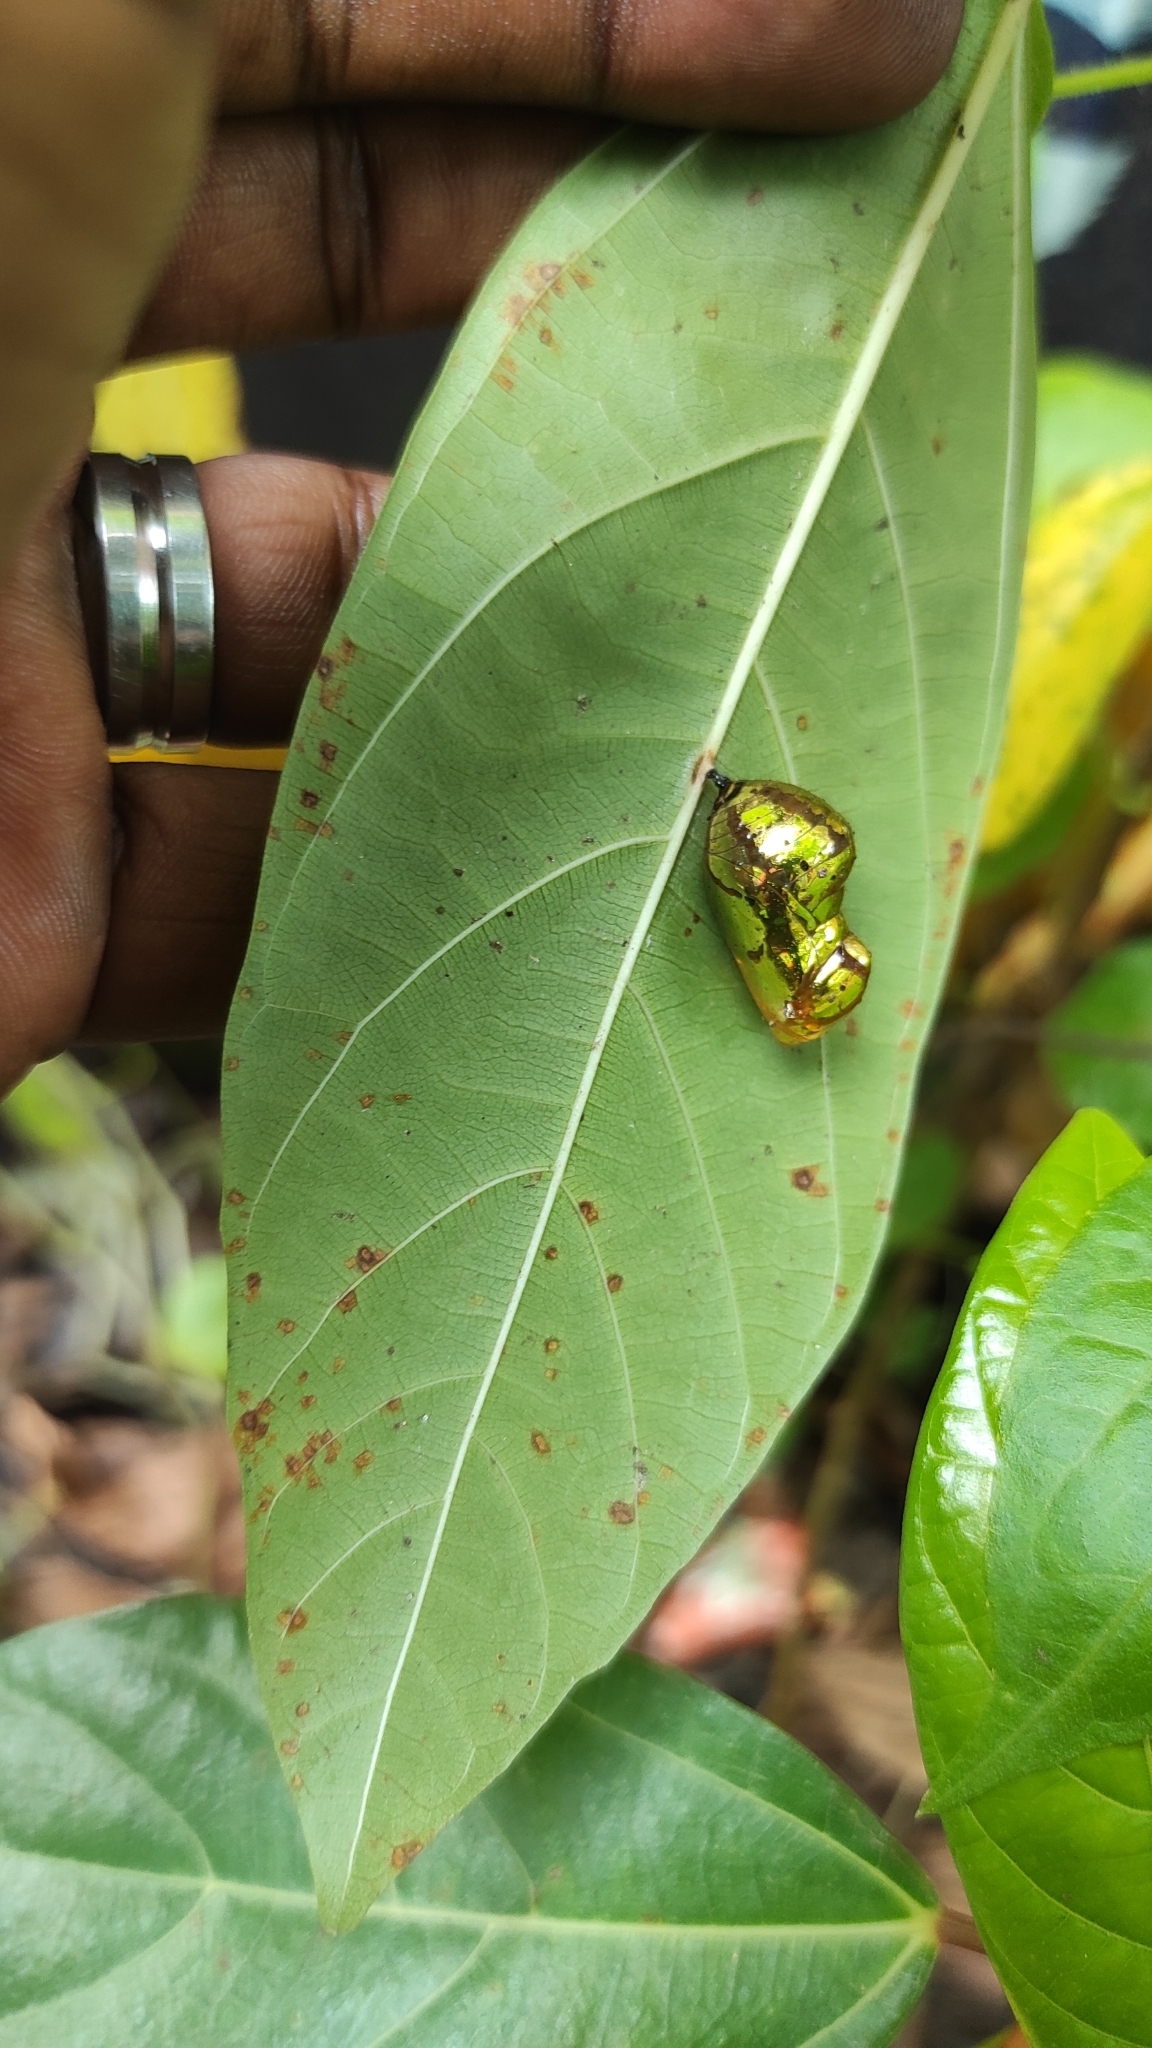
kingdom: Animalia
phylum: Arthropoda
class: Insecta
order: Lepidoptera
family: Nymphalidae
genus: Euploea
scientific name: Euploea core
